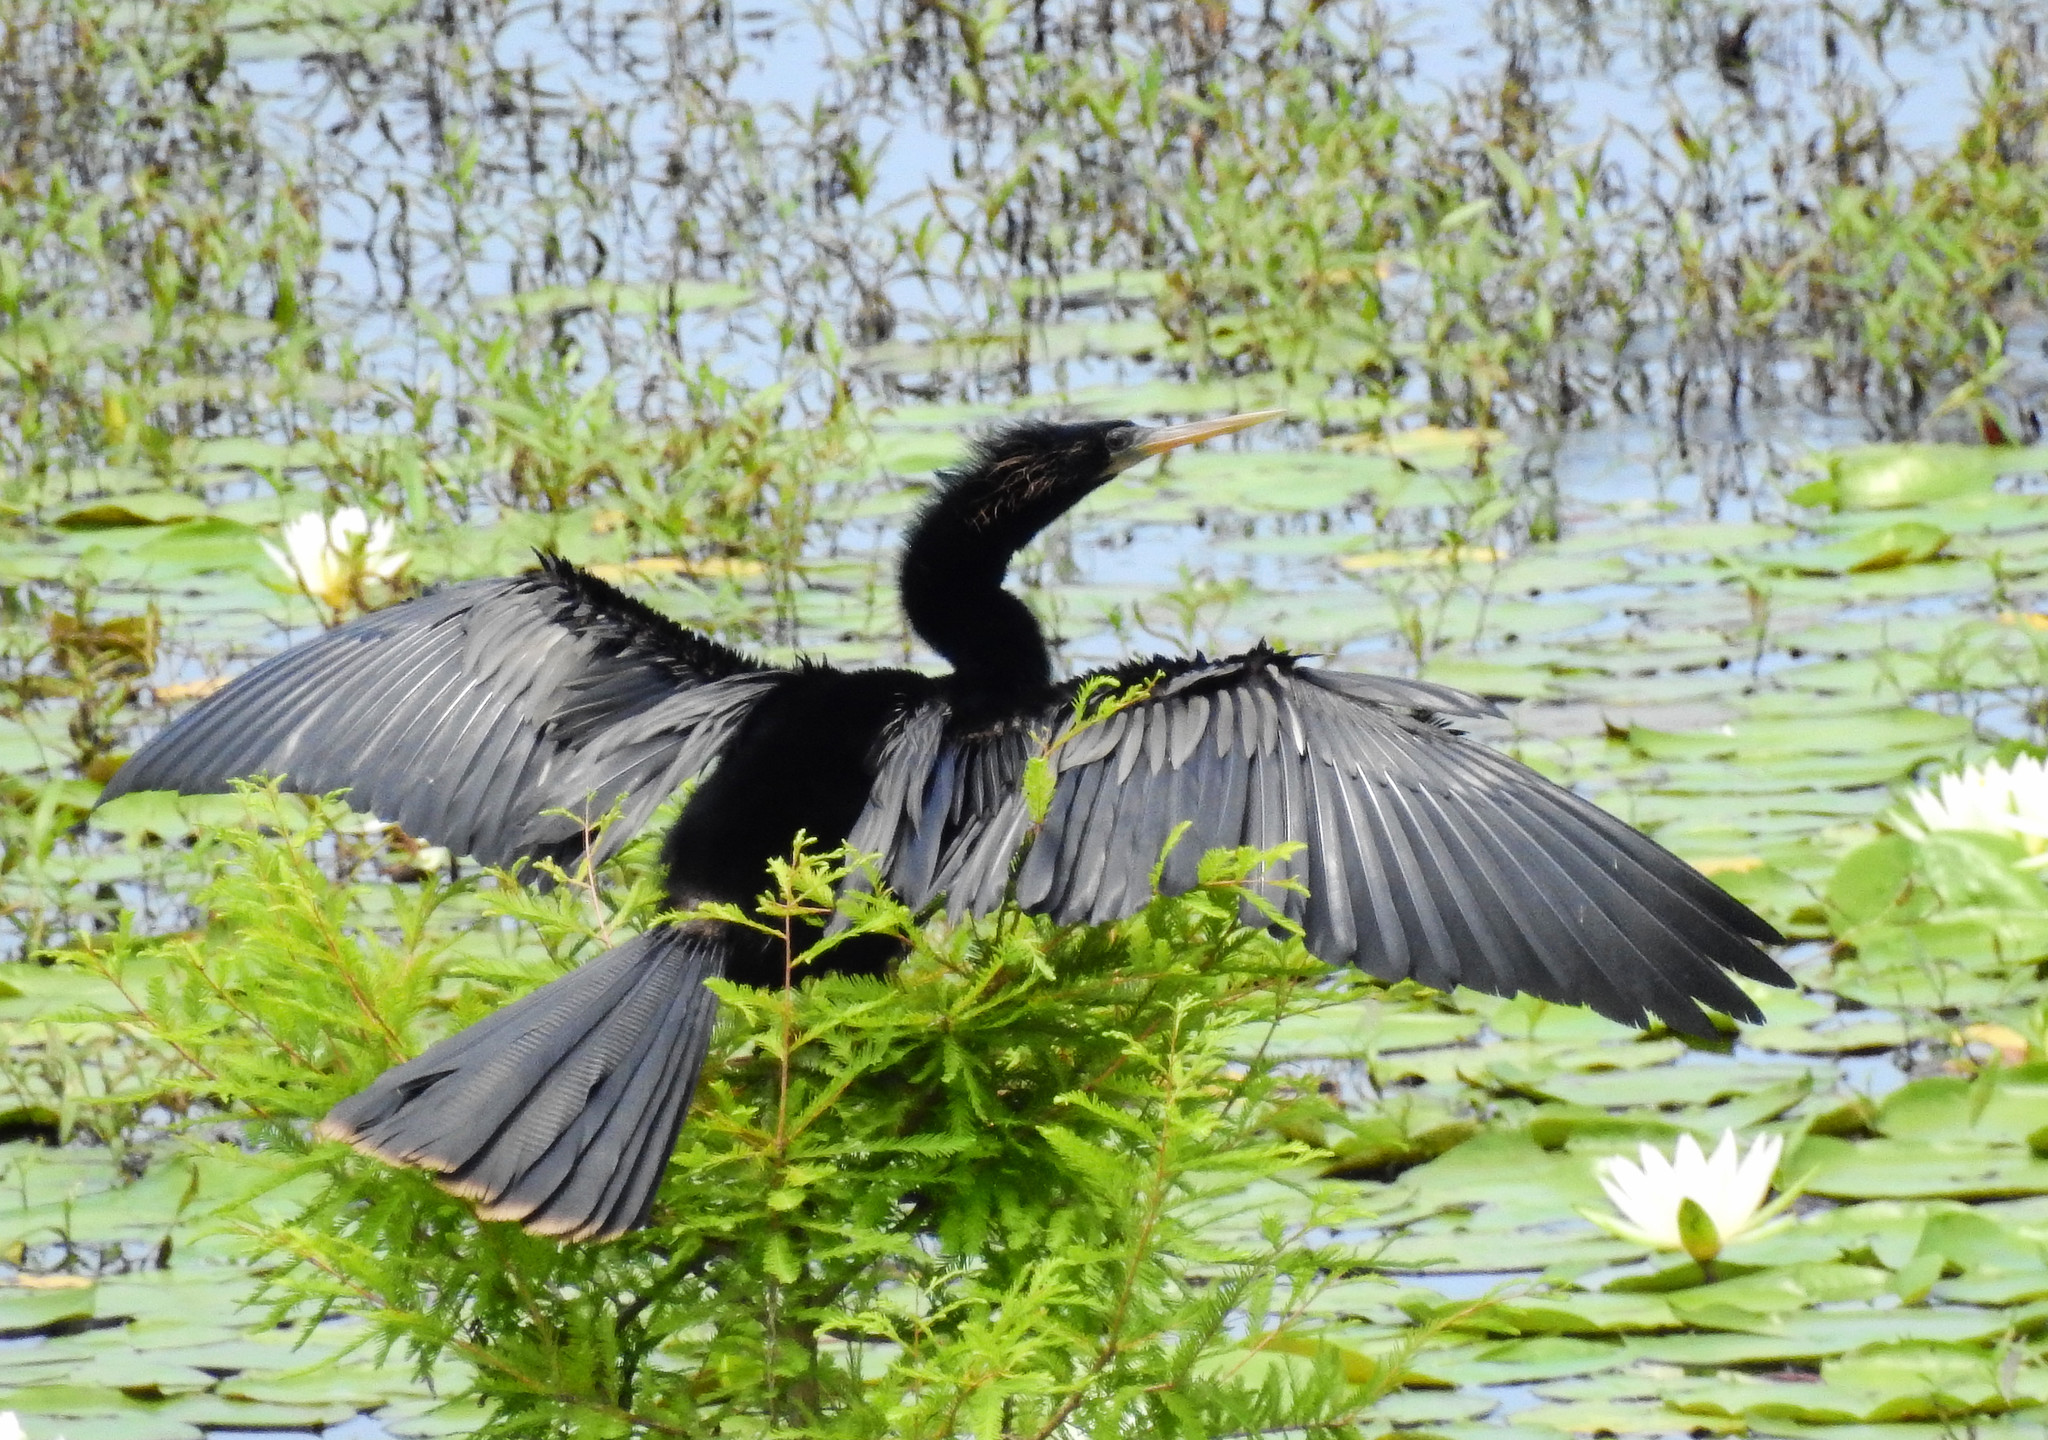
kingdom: Animalia
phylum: Chordata
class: Aves
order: Suliformes
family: Anhingidae
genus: Anhinga
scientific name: Anhinga anhinga
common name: Anhinga
